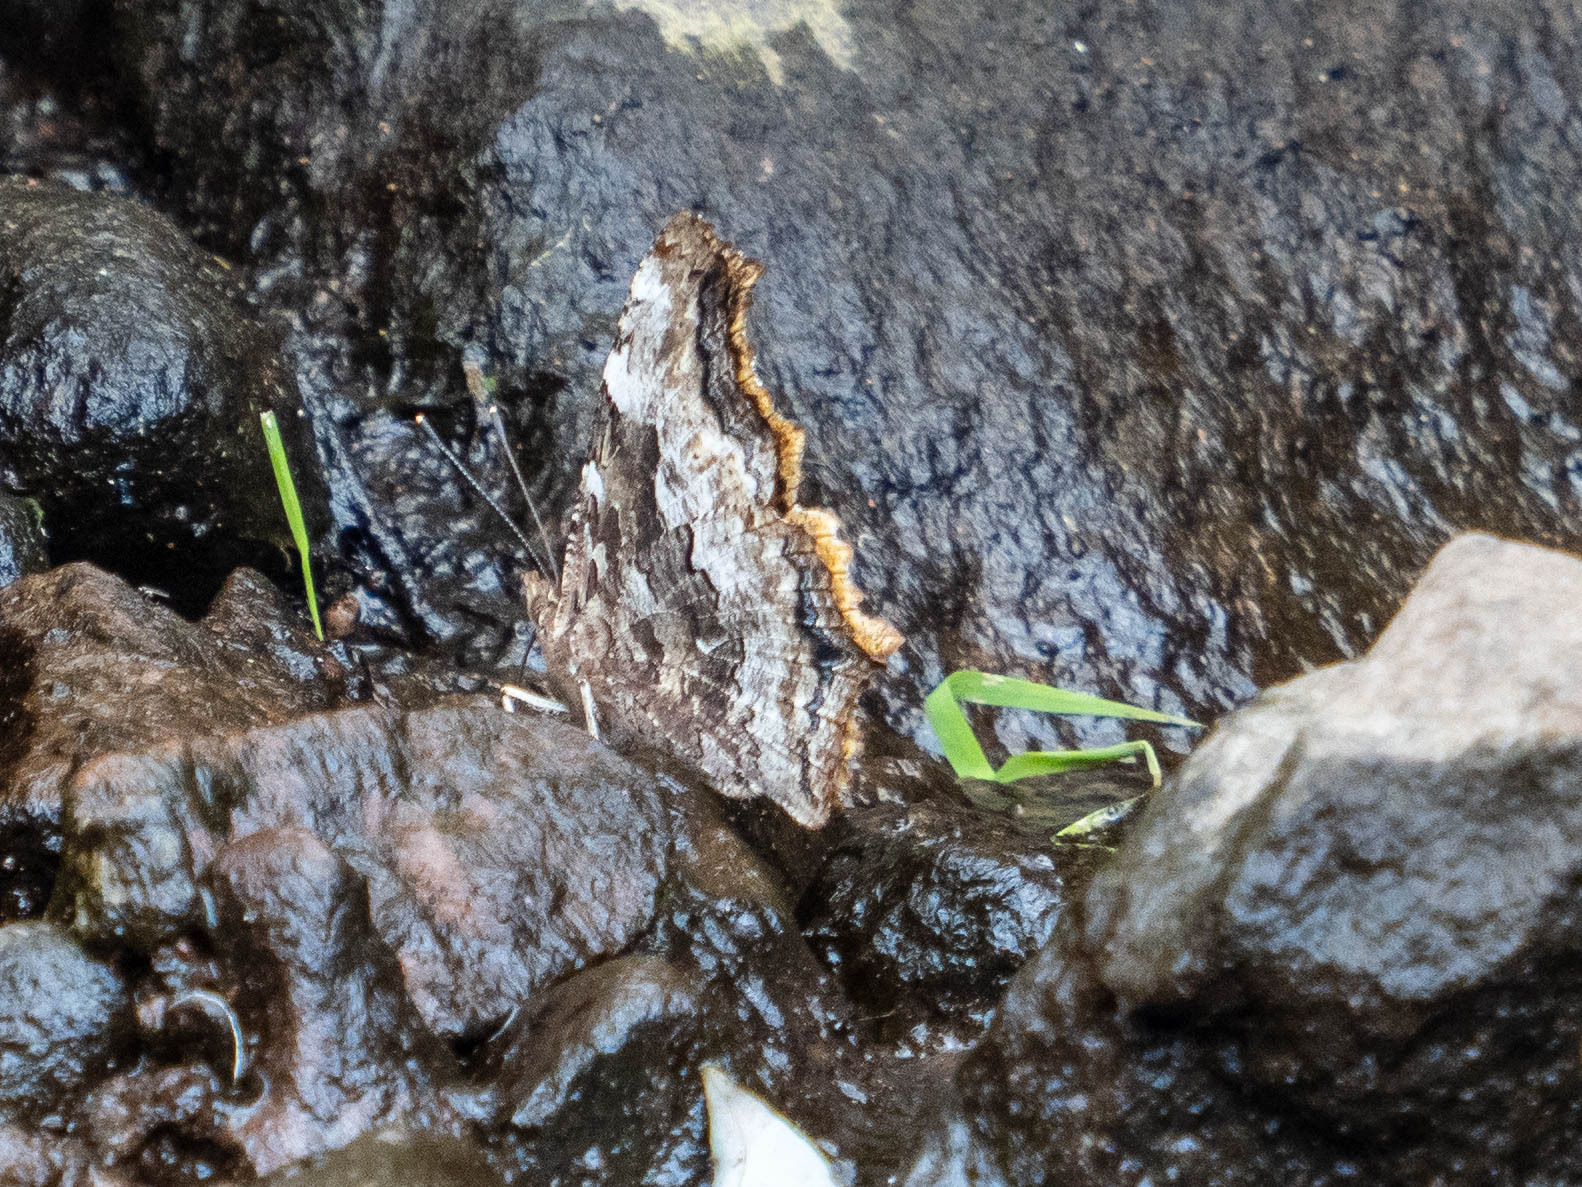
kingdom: Animalia
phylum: Arthropoda
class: Insecta
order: Lepidoptera
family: Nymphalidae
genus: Polygonia
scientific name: Polygonia vaualbum
